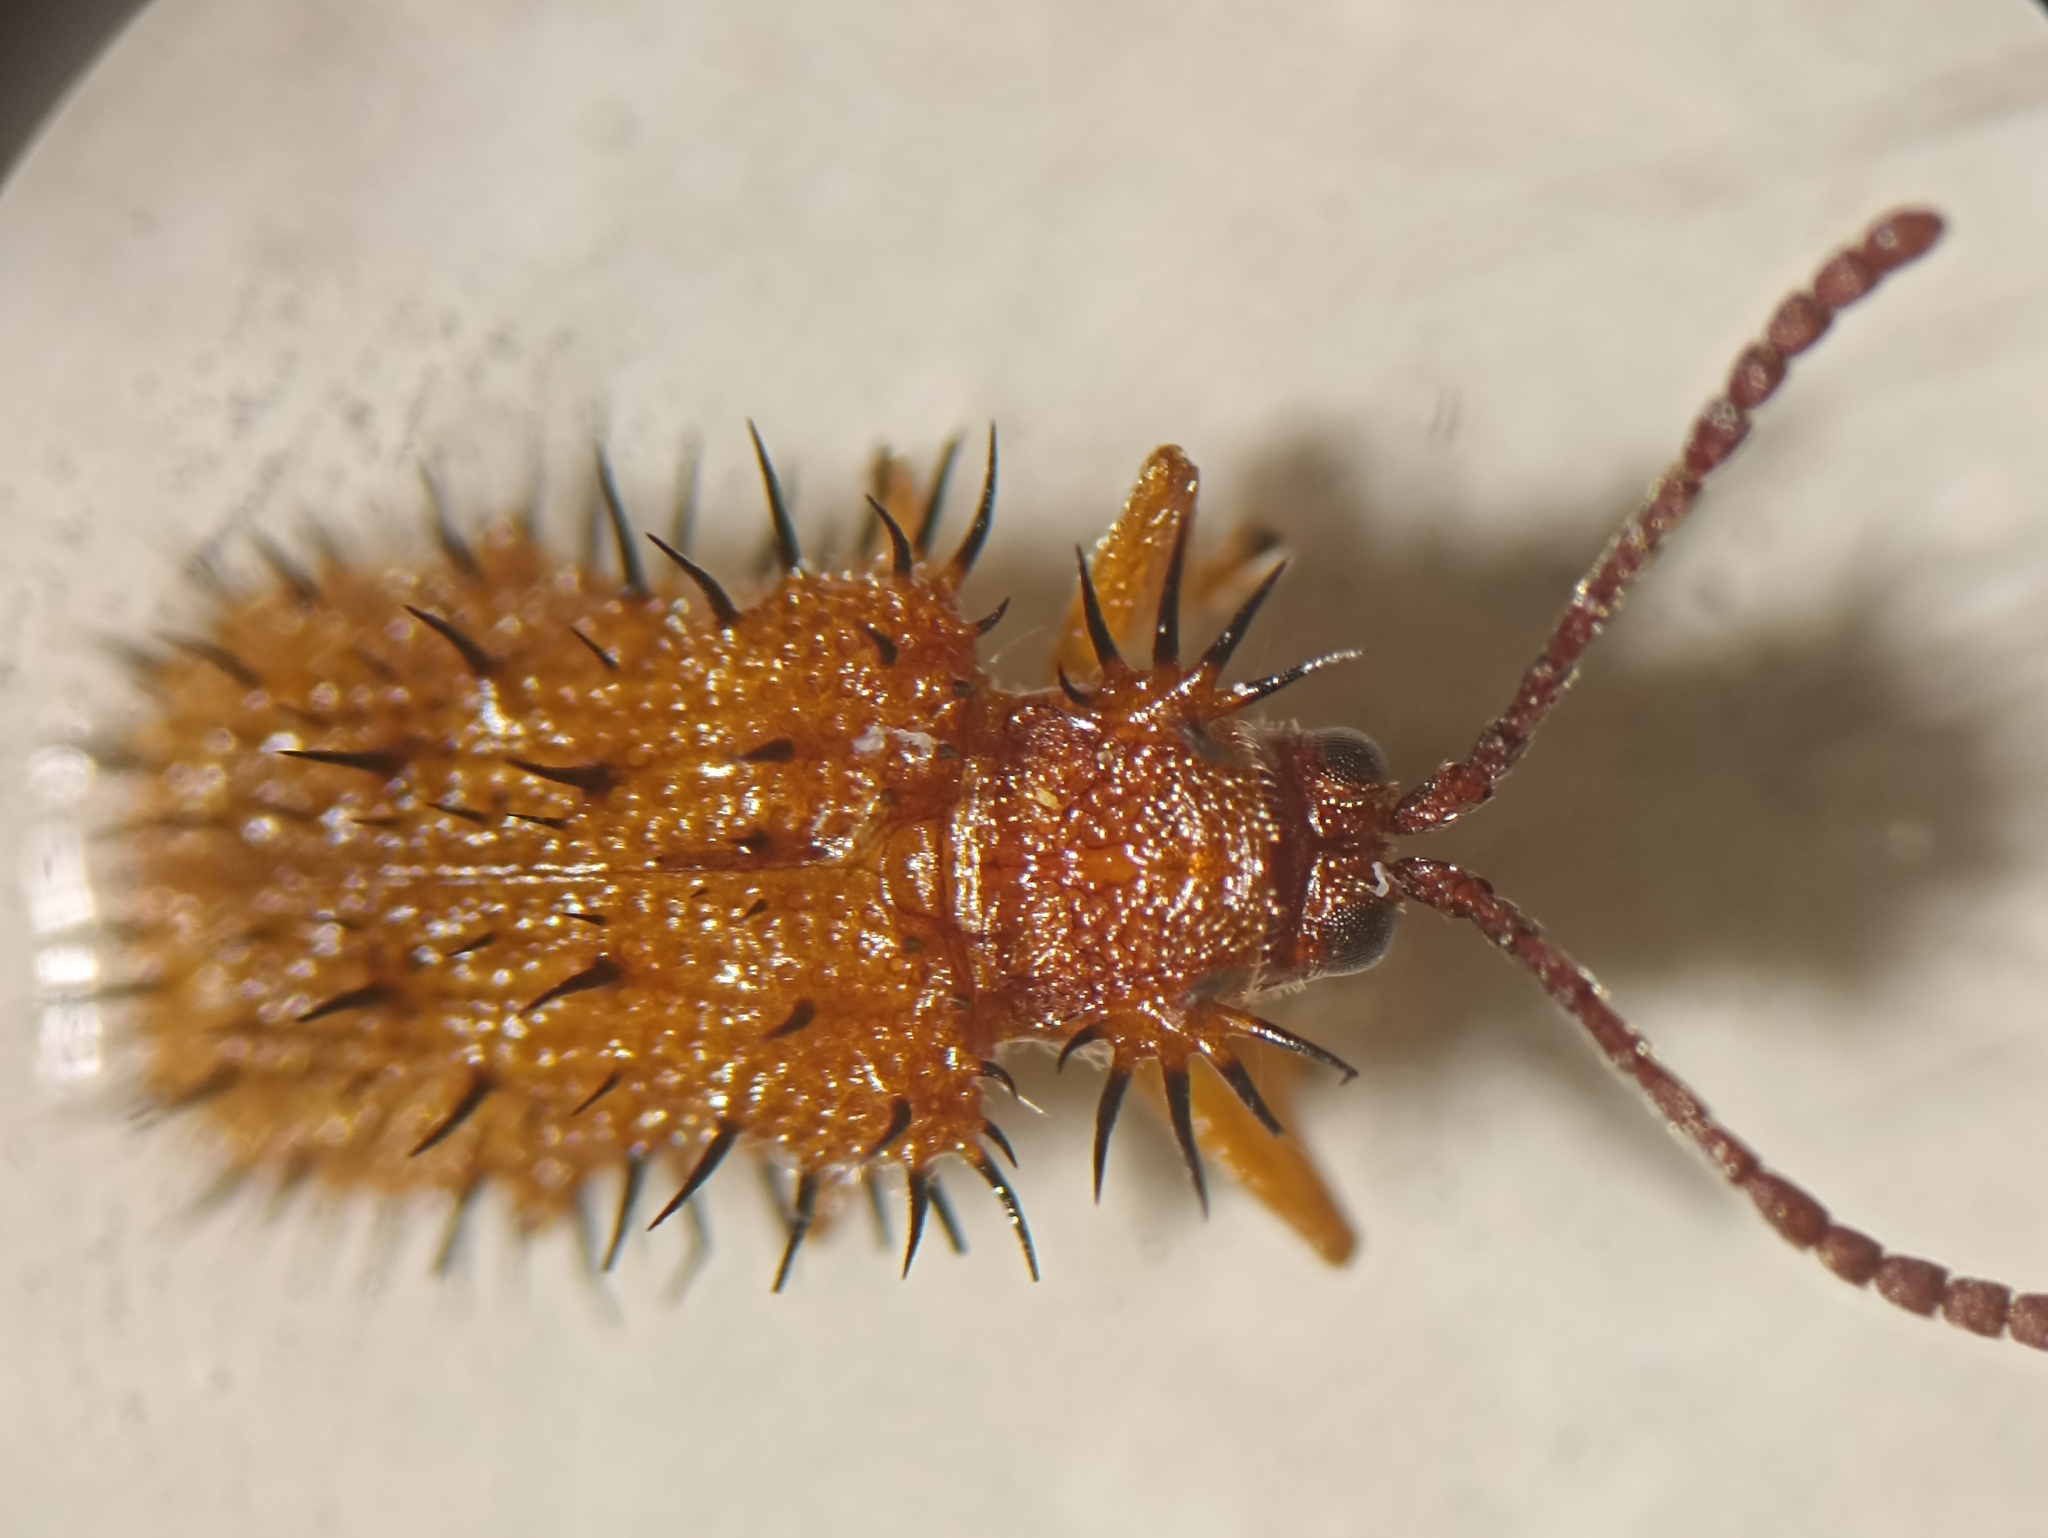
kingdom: Animalia
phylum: Arthropoda
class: Insecta
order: Coleoptera
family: Chrysomelidae
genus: Dicladispa
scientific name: Dicladispa testacea
